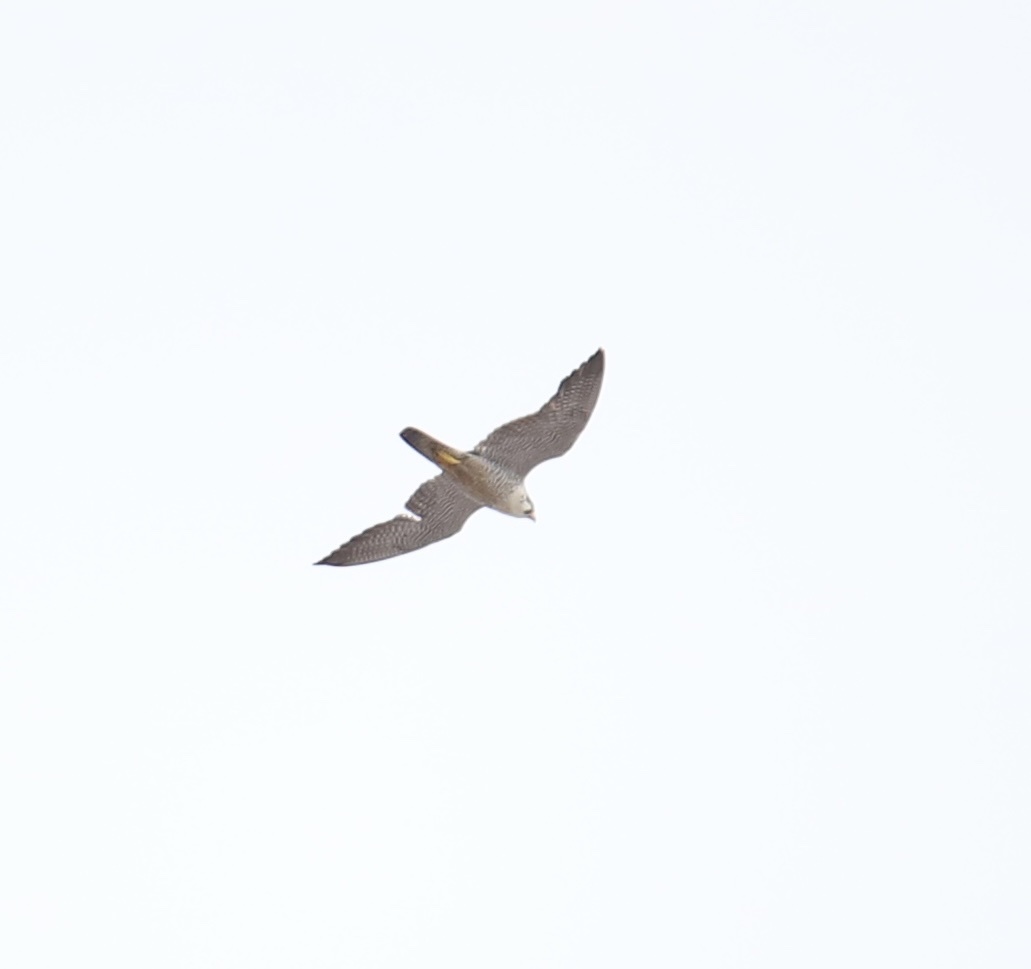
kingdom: Animalia
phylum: Chordata
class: Aves
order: Falconiformes
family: Falconidae
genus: Falco
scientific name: Falco peregrinus
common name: Peregrine falcon
